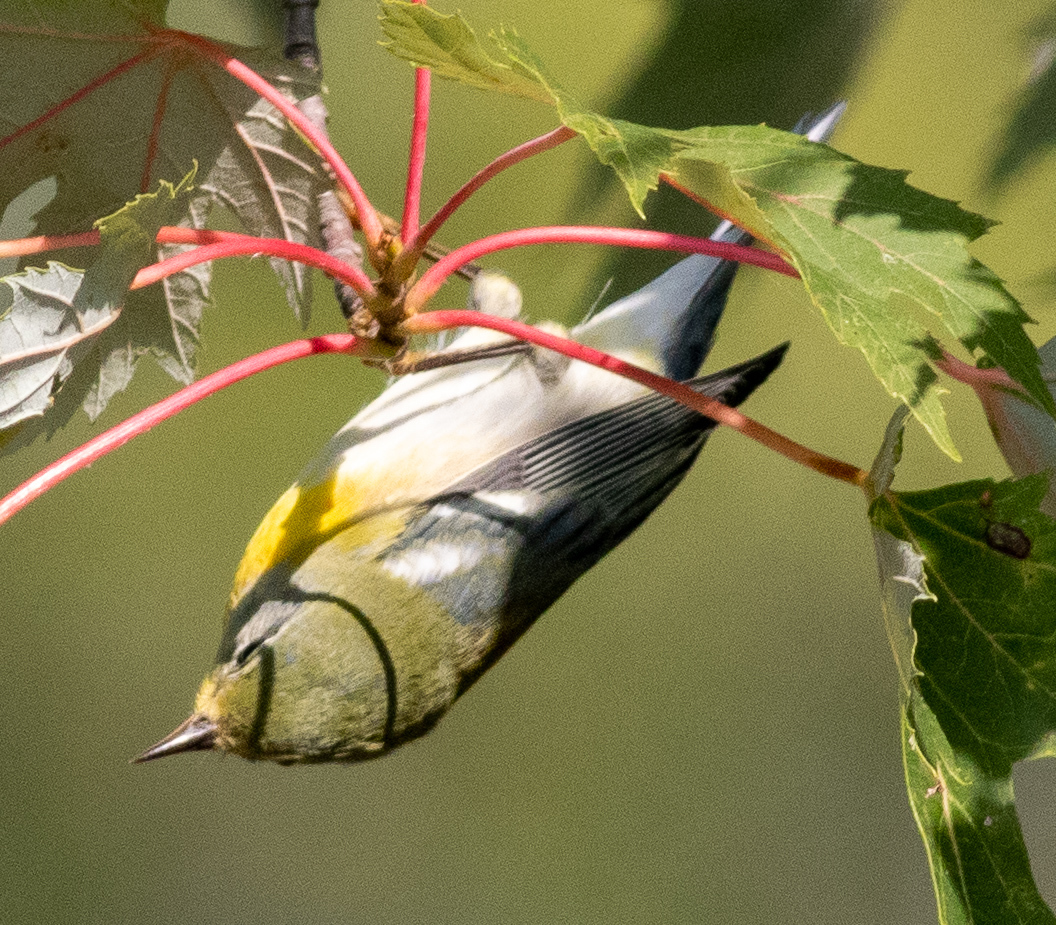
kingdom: Animalia
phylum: Chordata
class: Aves
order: Passeriformes
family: Parulidae
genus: Setophaga
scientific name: Setophaga americana
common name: Northern parula
